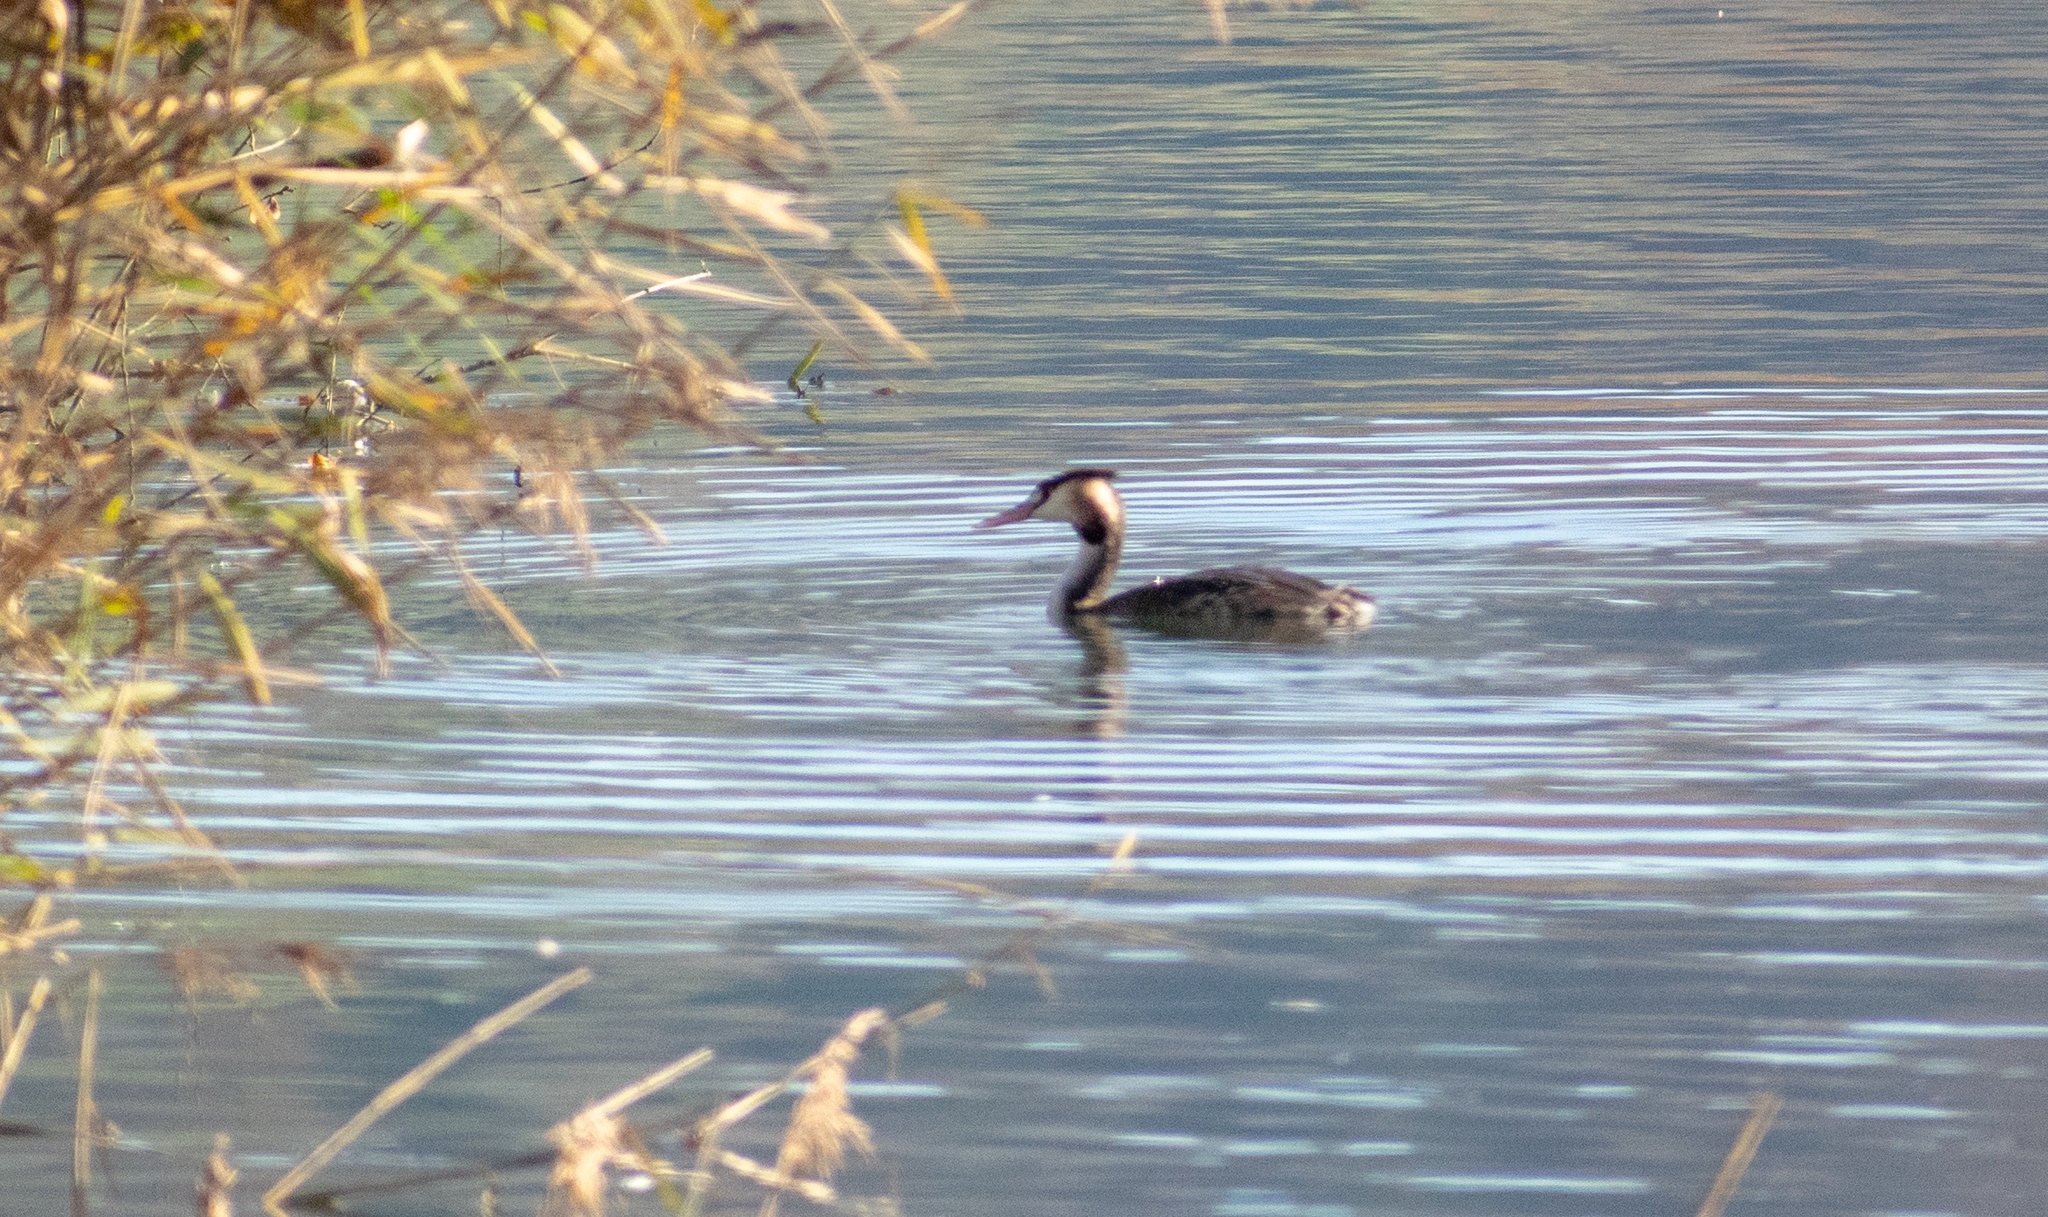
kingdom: Animalia
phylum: Chordata
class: Aves
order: Podicipediformes
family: Podicipedidae
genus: Podiceps
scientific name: Podiceps cristatus
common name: Great crested grebe
